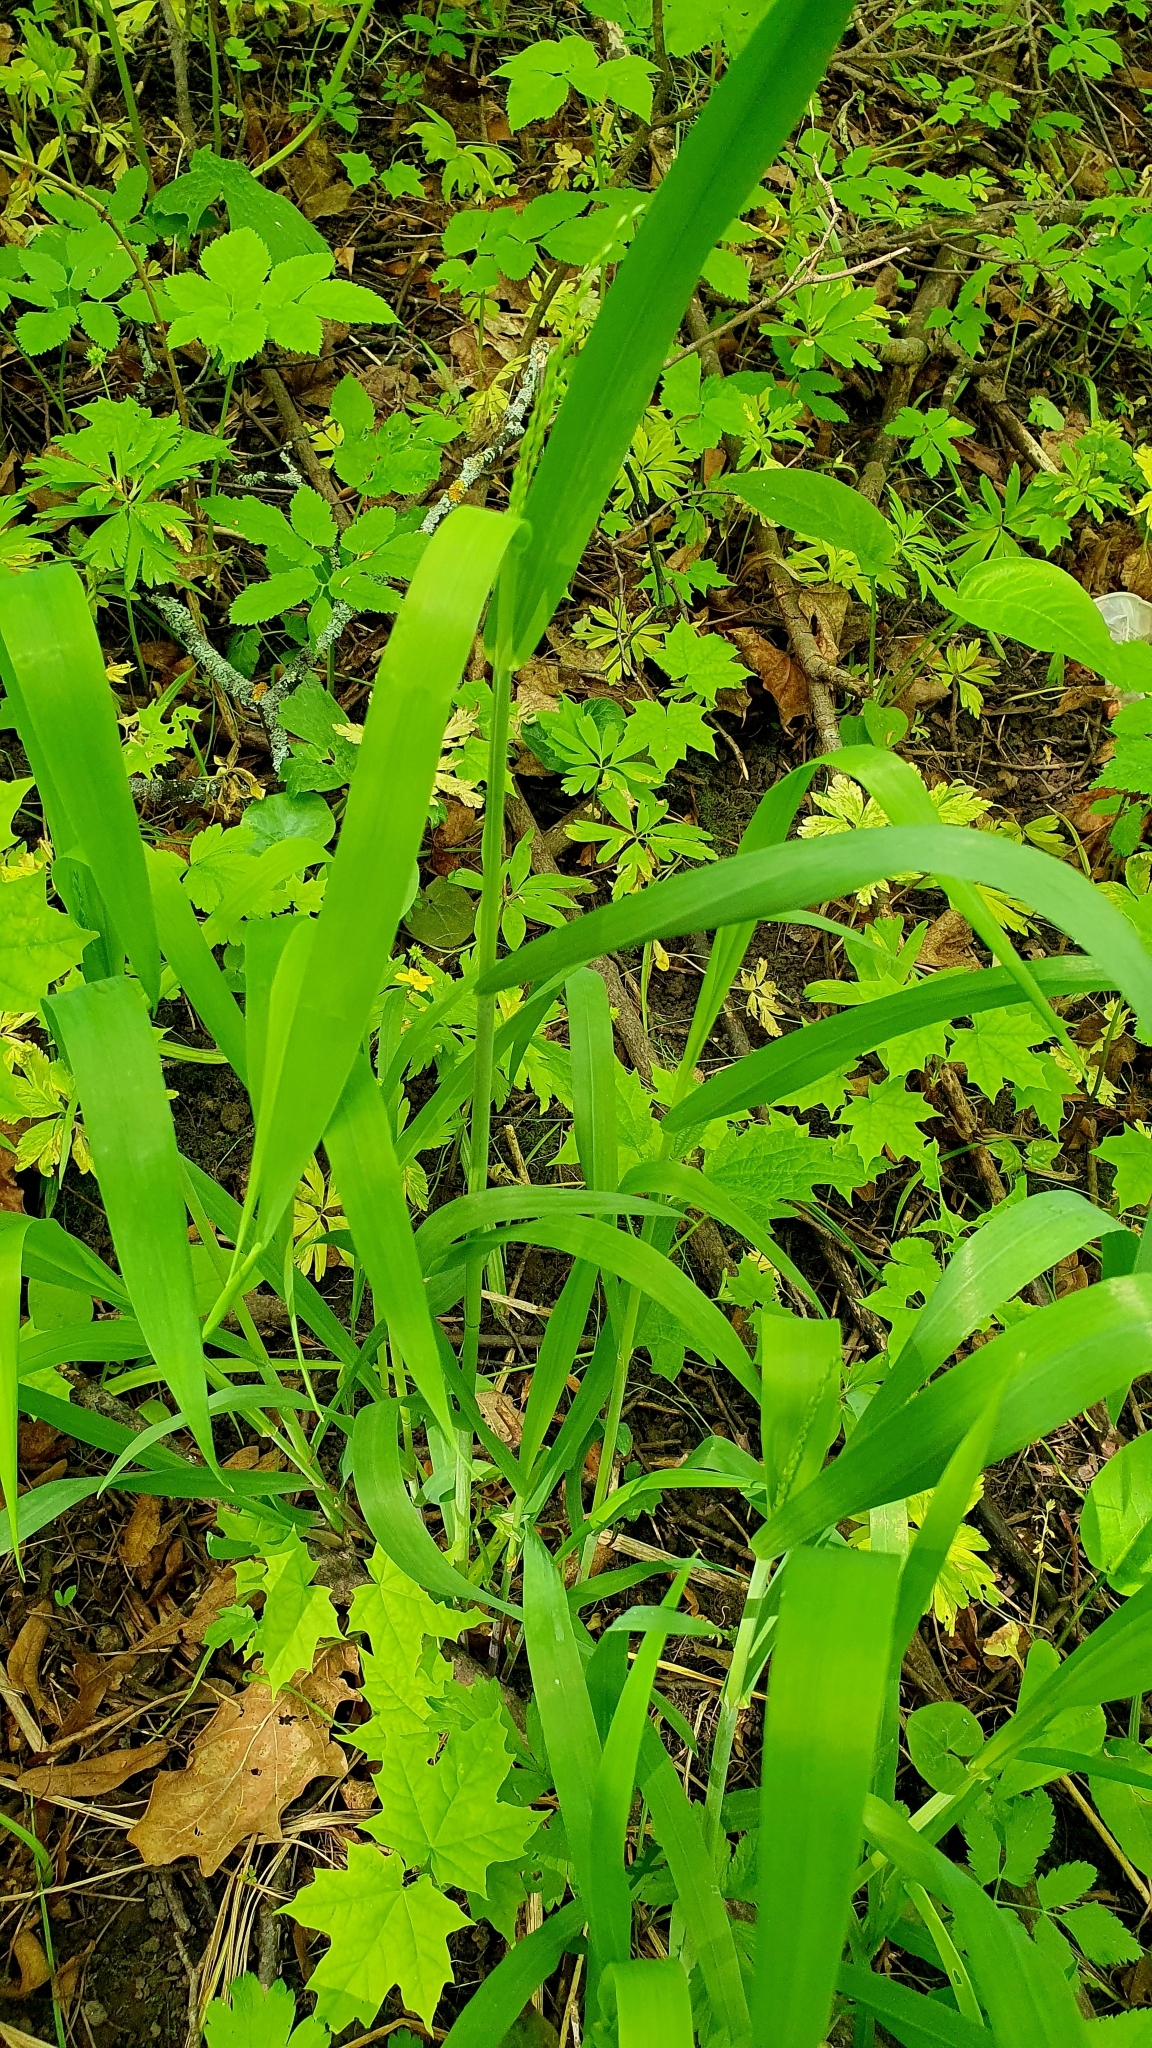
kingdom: Plantae
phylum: Tracheophyta
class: Liliopsida
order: Poales
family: Poaceae
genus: Milium
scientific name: Milium effusum
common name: Wood millet
